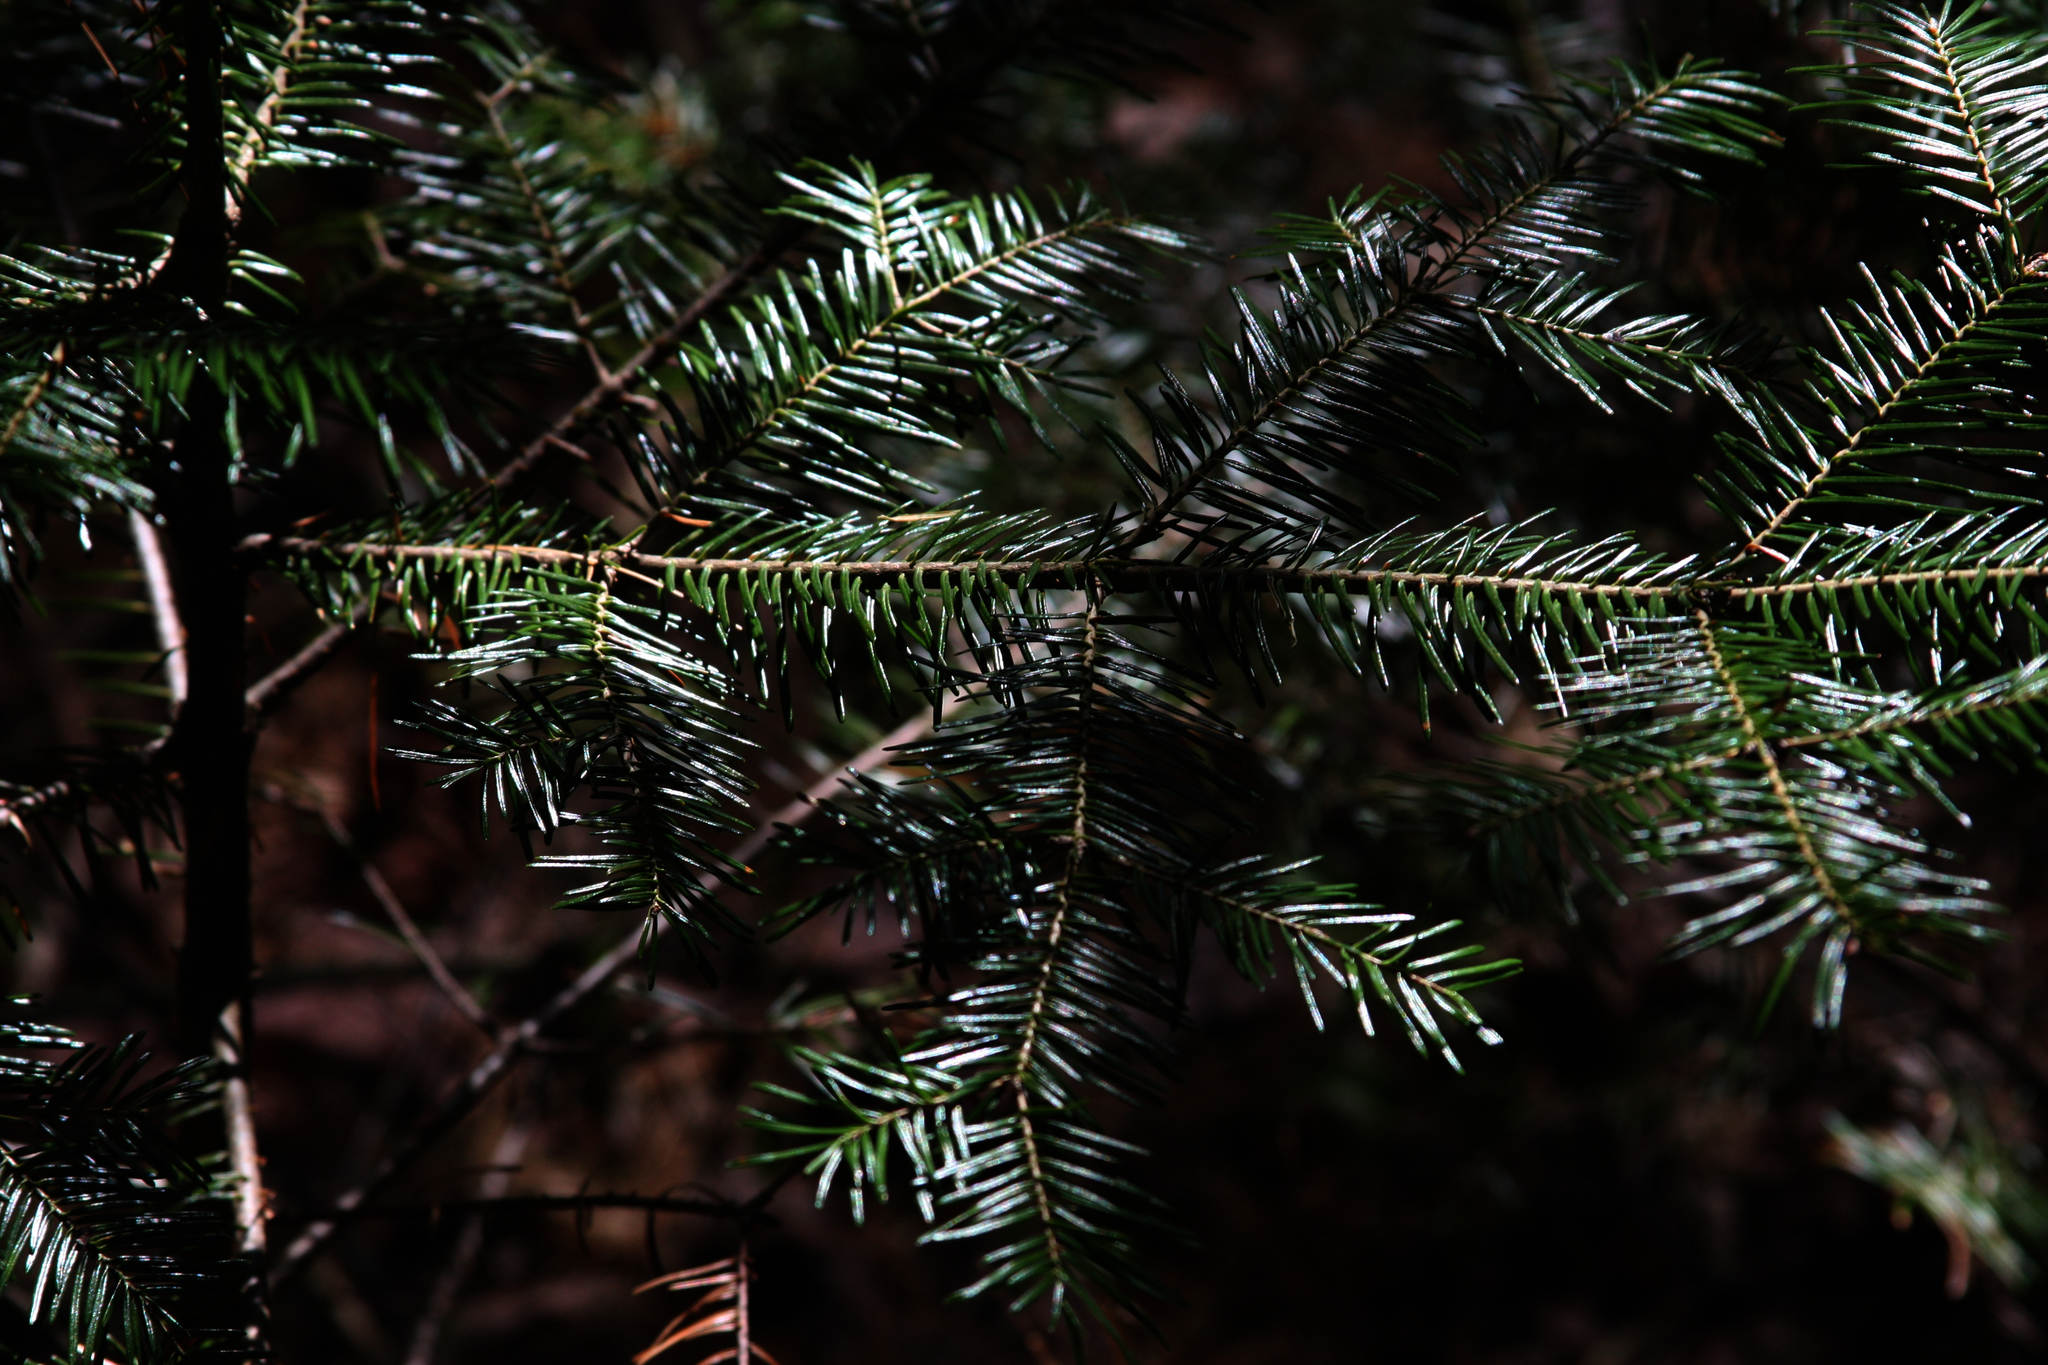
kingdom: Plantae
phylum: Tracheophyta
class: Pinopsida
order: Pinales
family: Pinaceae
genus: Abies
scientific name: Abies balsamea
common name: Balsam fir
